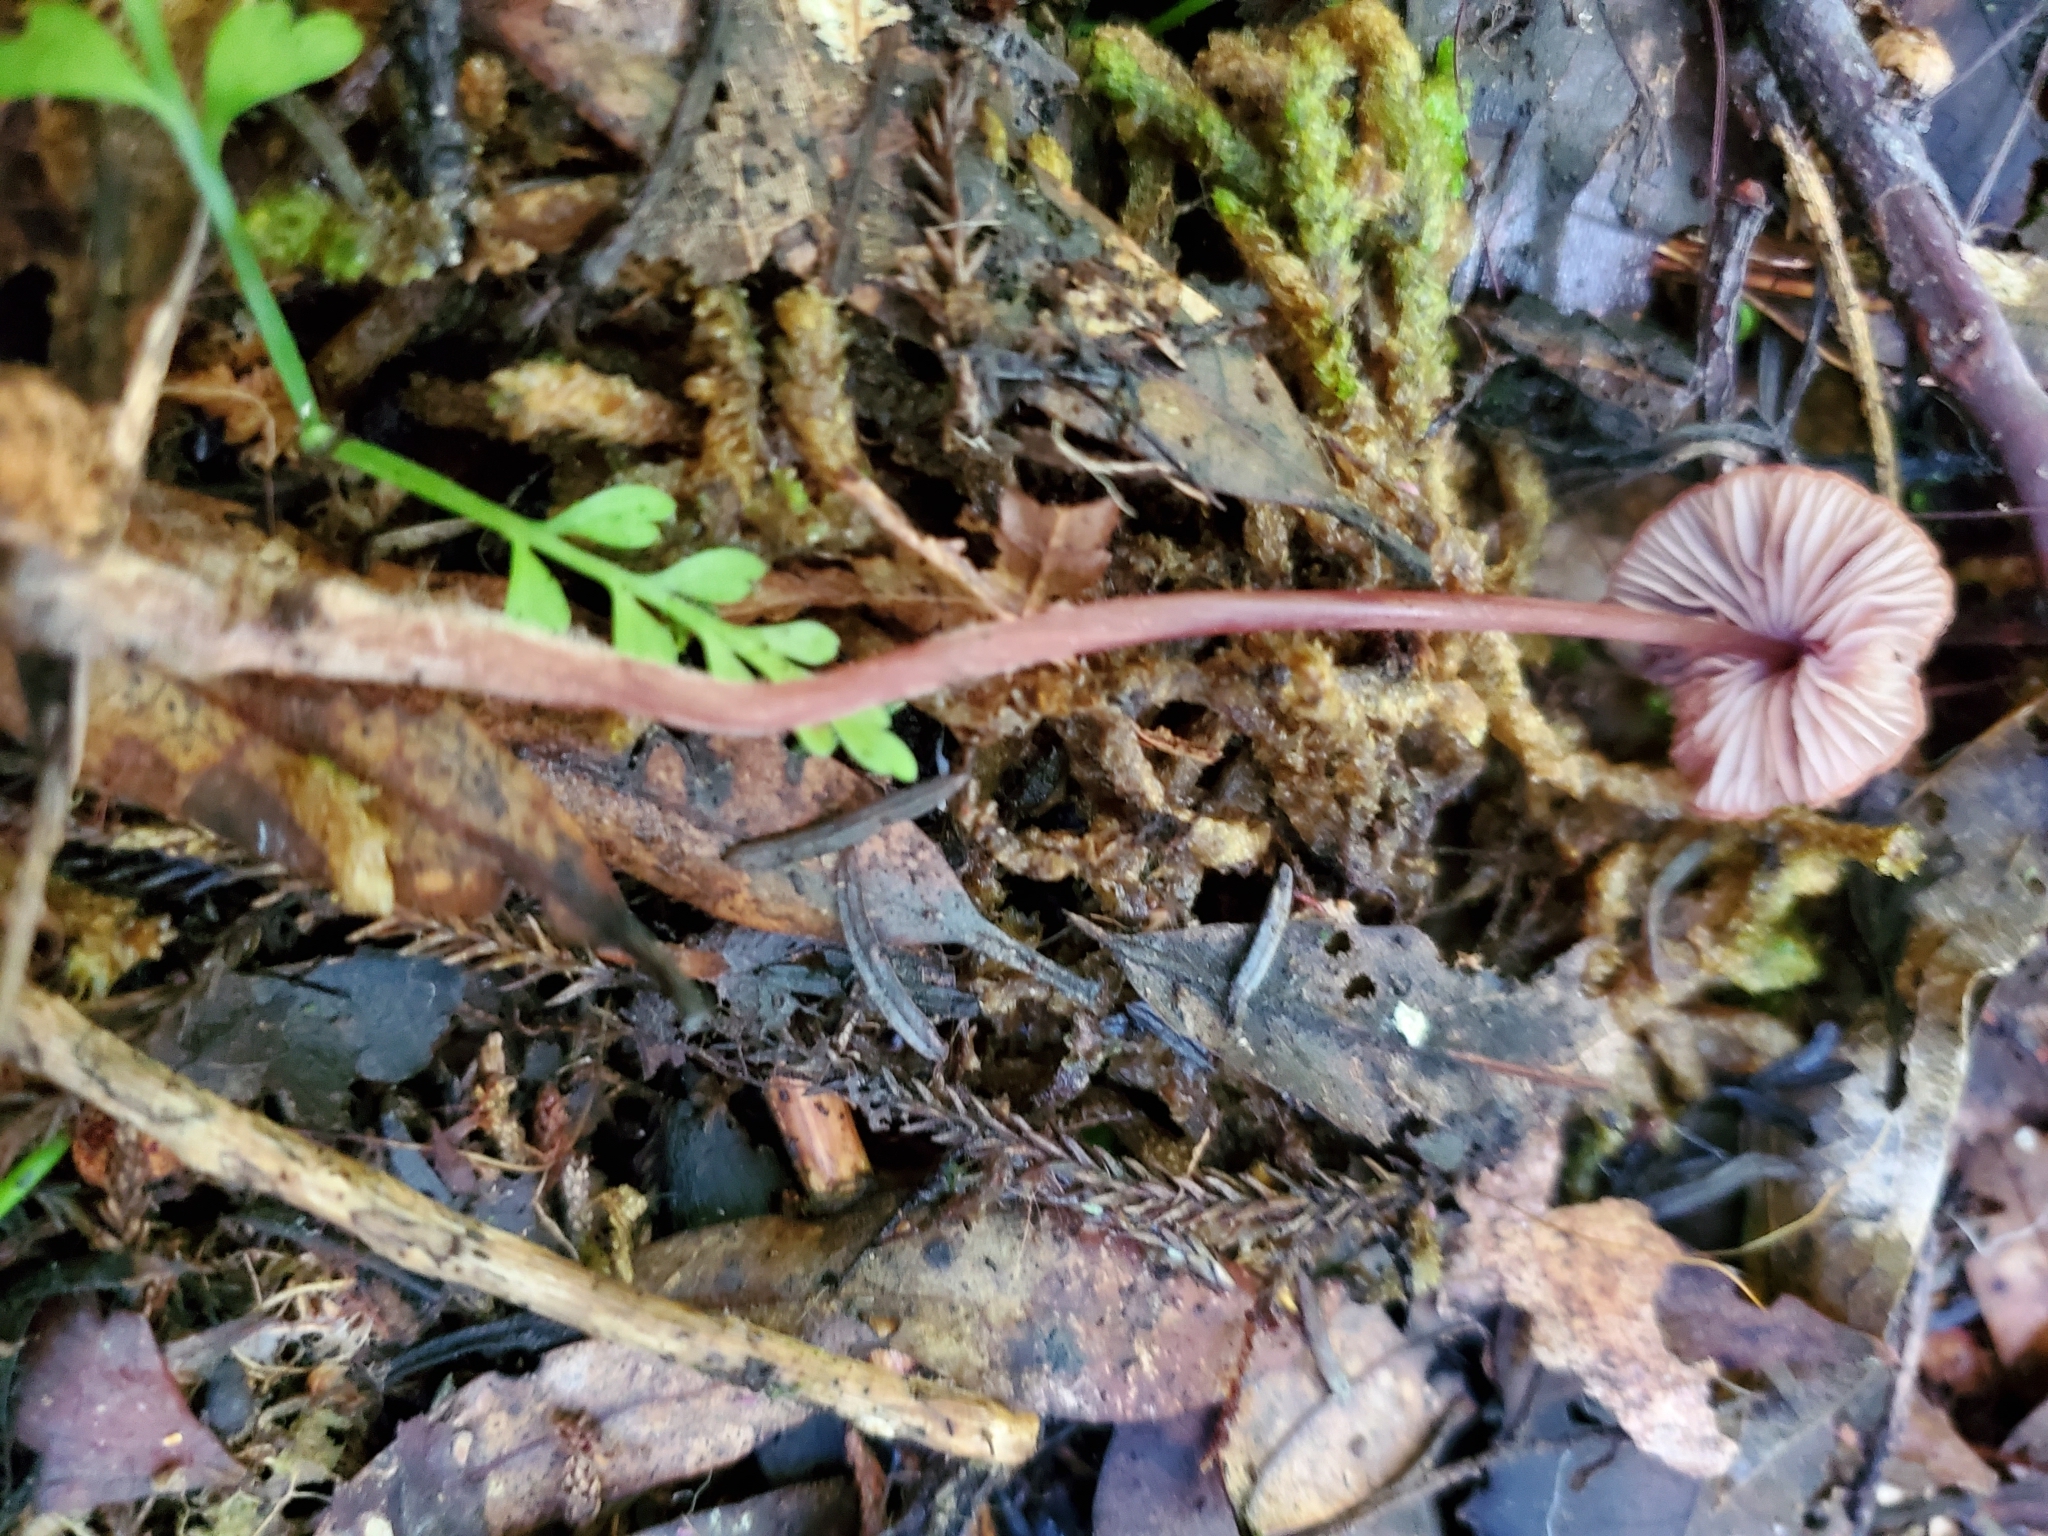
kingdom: Fungi
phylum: Basidiomycota
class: Agaricomycetes
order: Agaricales
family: Mycenaceae
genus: Mycena
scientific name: Mycena mariae
